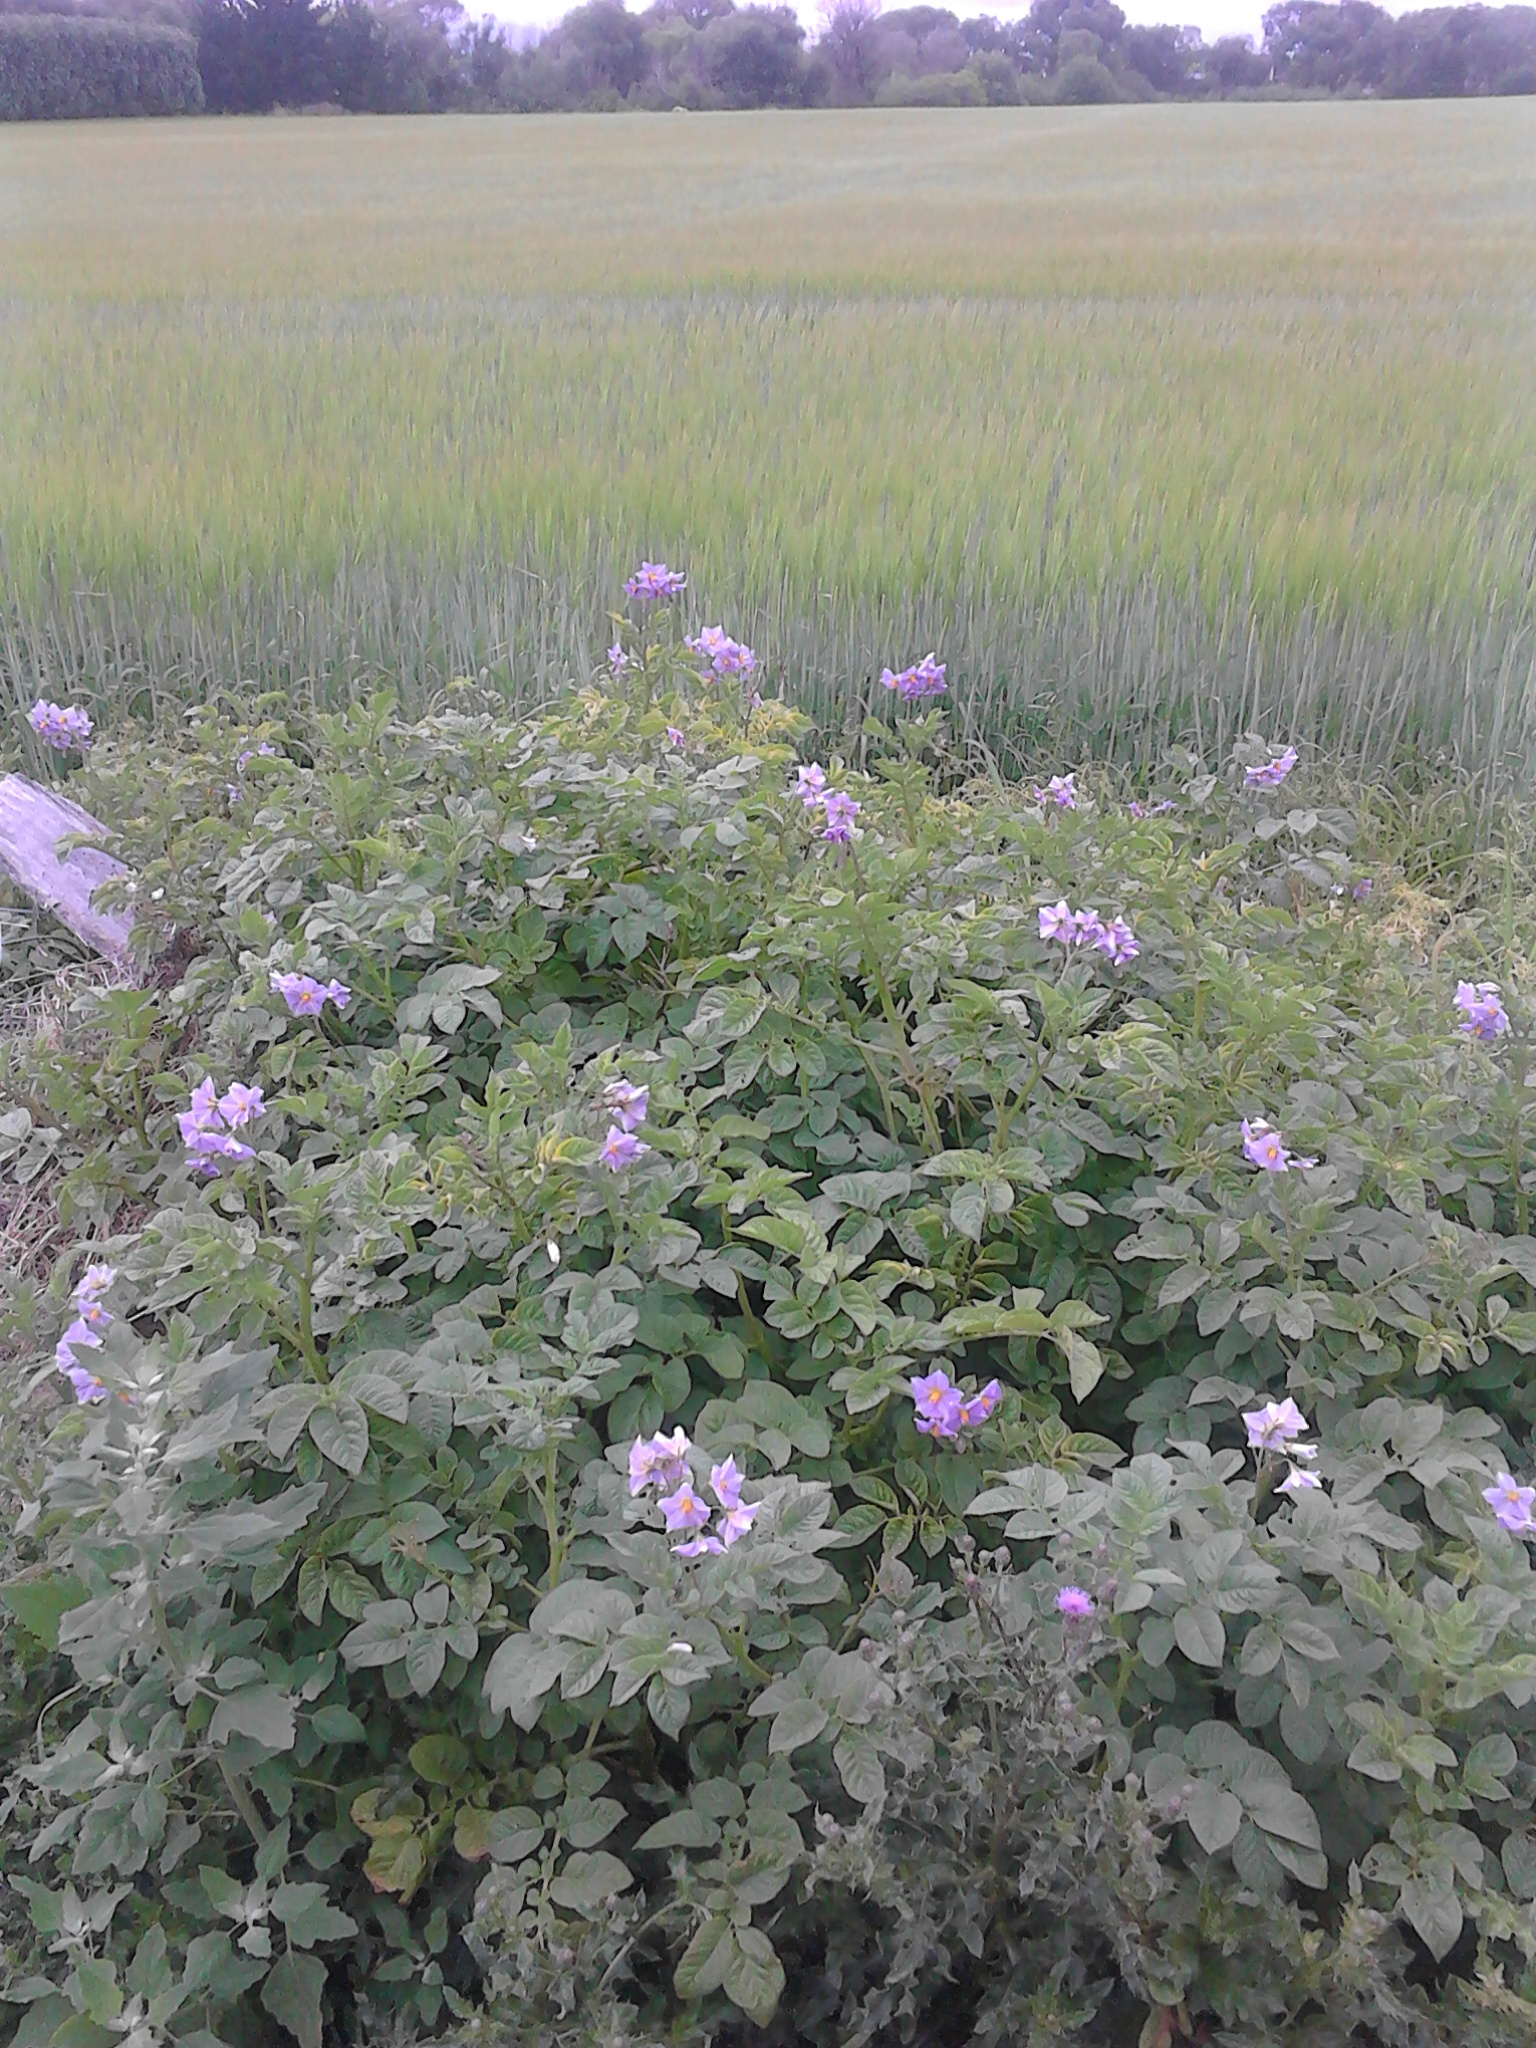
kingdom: Plantae
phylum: Tracheophyta
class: Magnoliopsida
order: Solanales
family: Solanaceae
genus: Solanum
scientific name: Solanum tuberosum
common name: Potato
